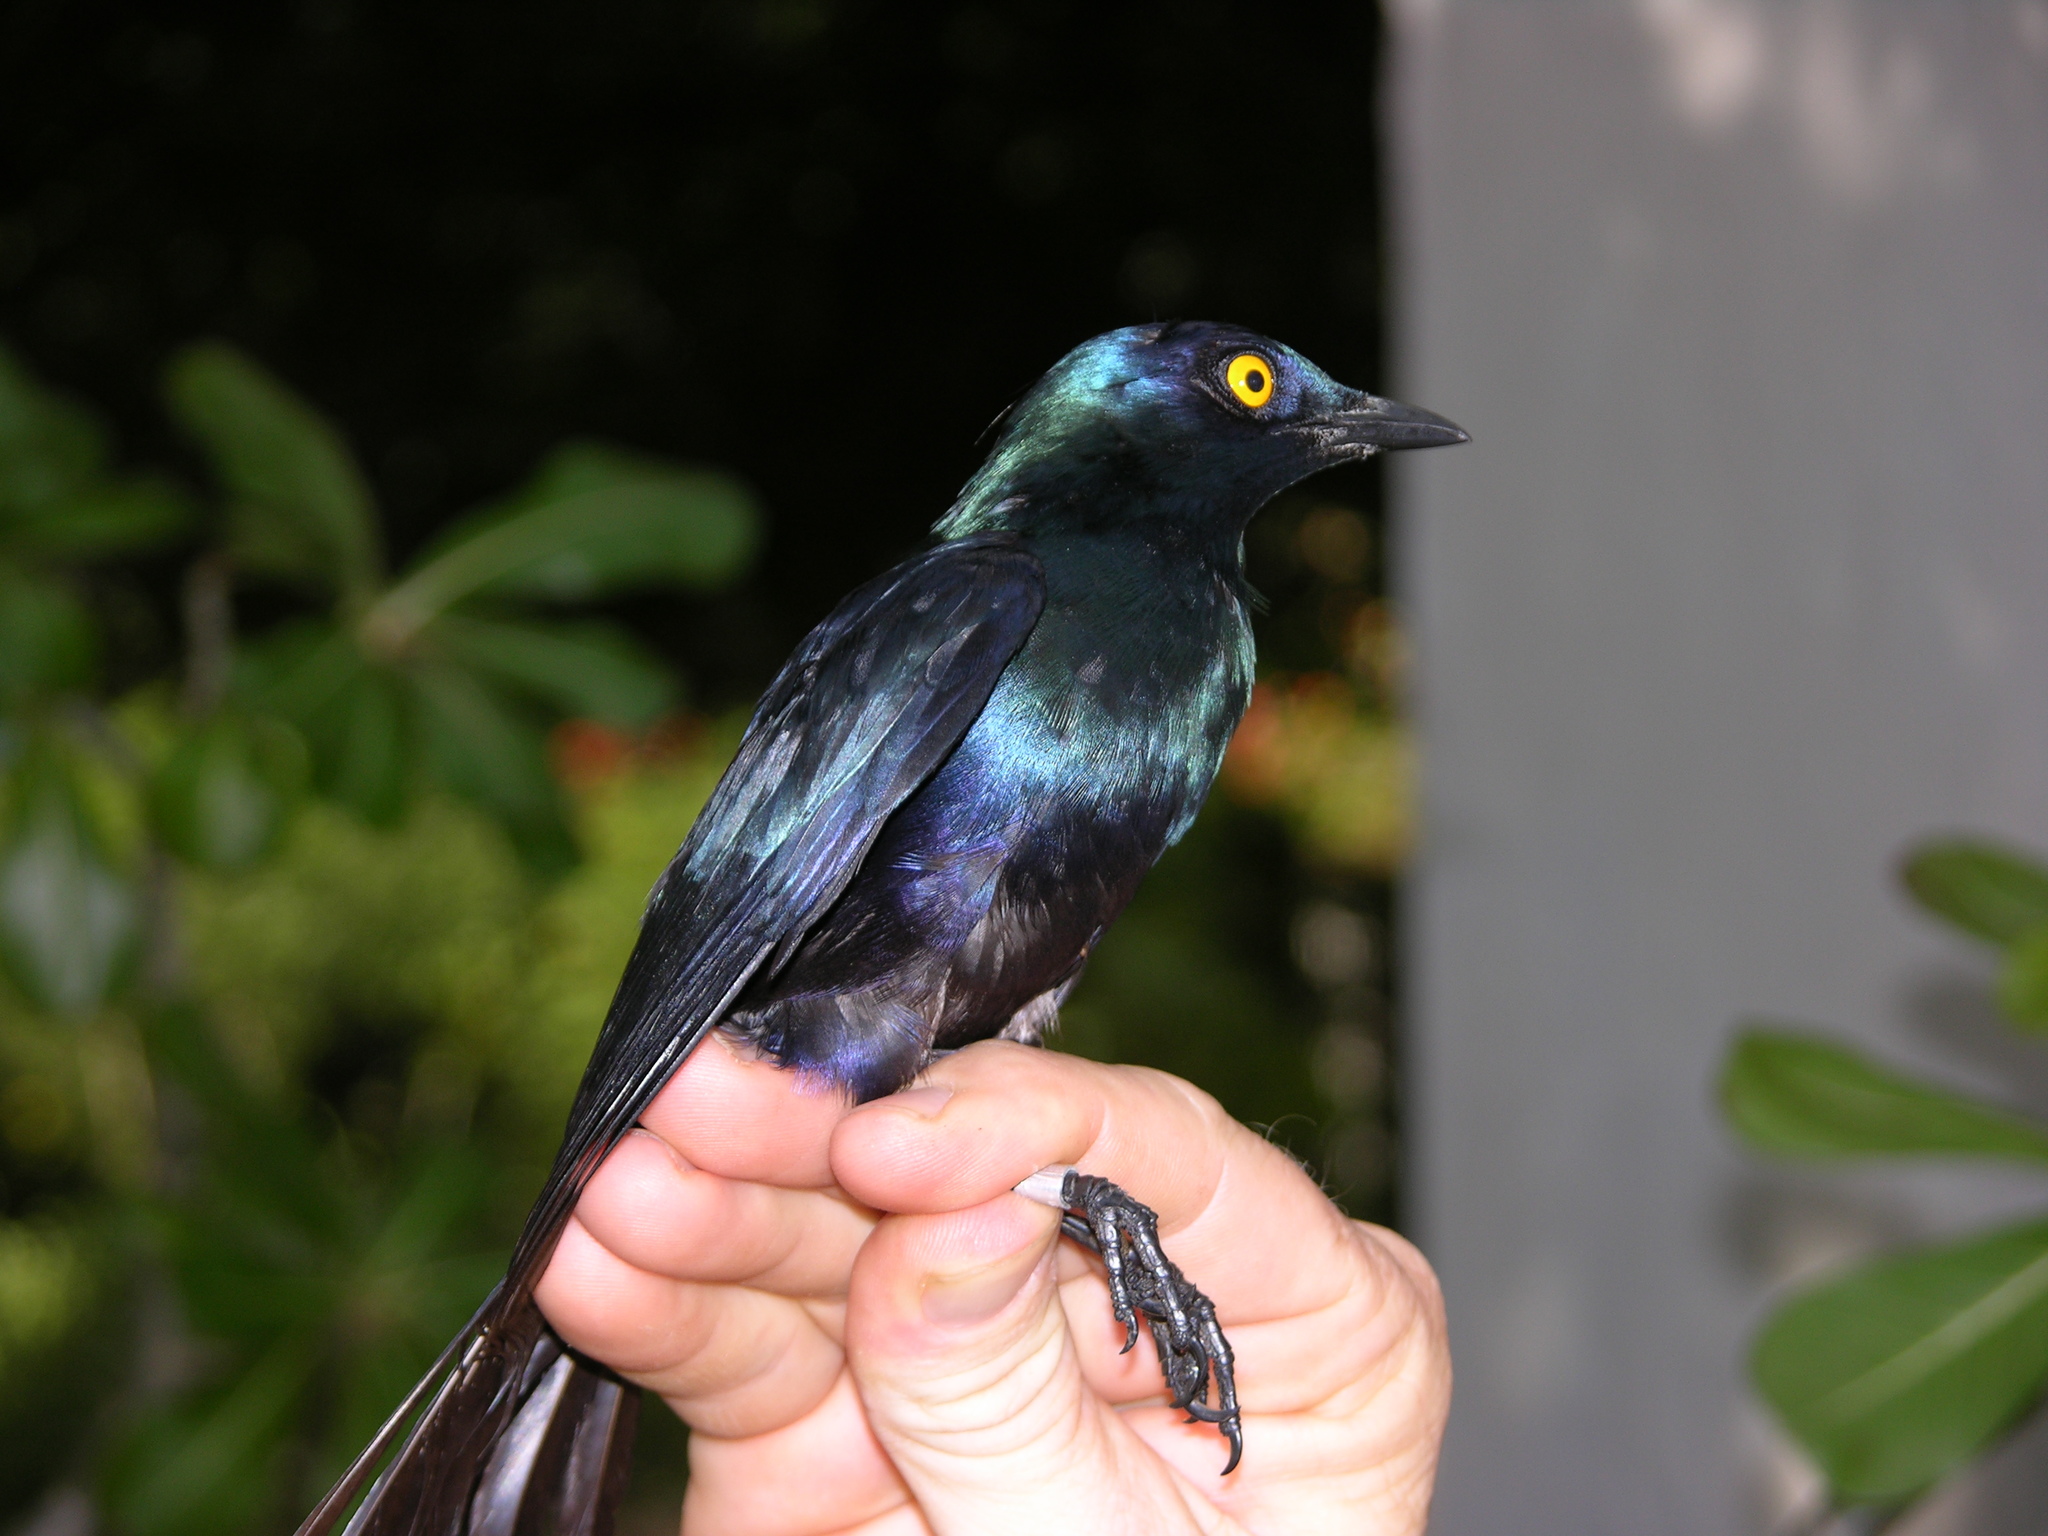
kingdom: Animalia
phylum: Chordata
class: Aves
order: Passeriformes
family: Sturnidae
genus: Notopholia
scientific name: Notopholia corrusca
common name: Black-bellied starling
